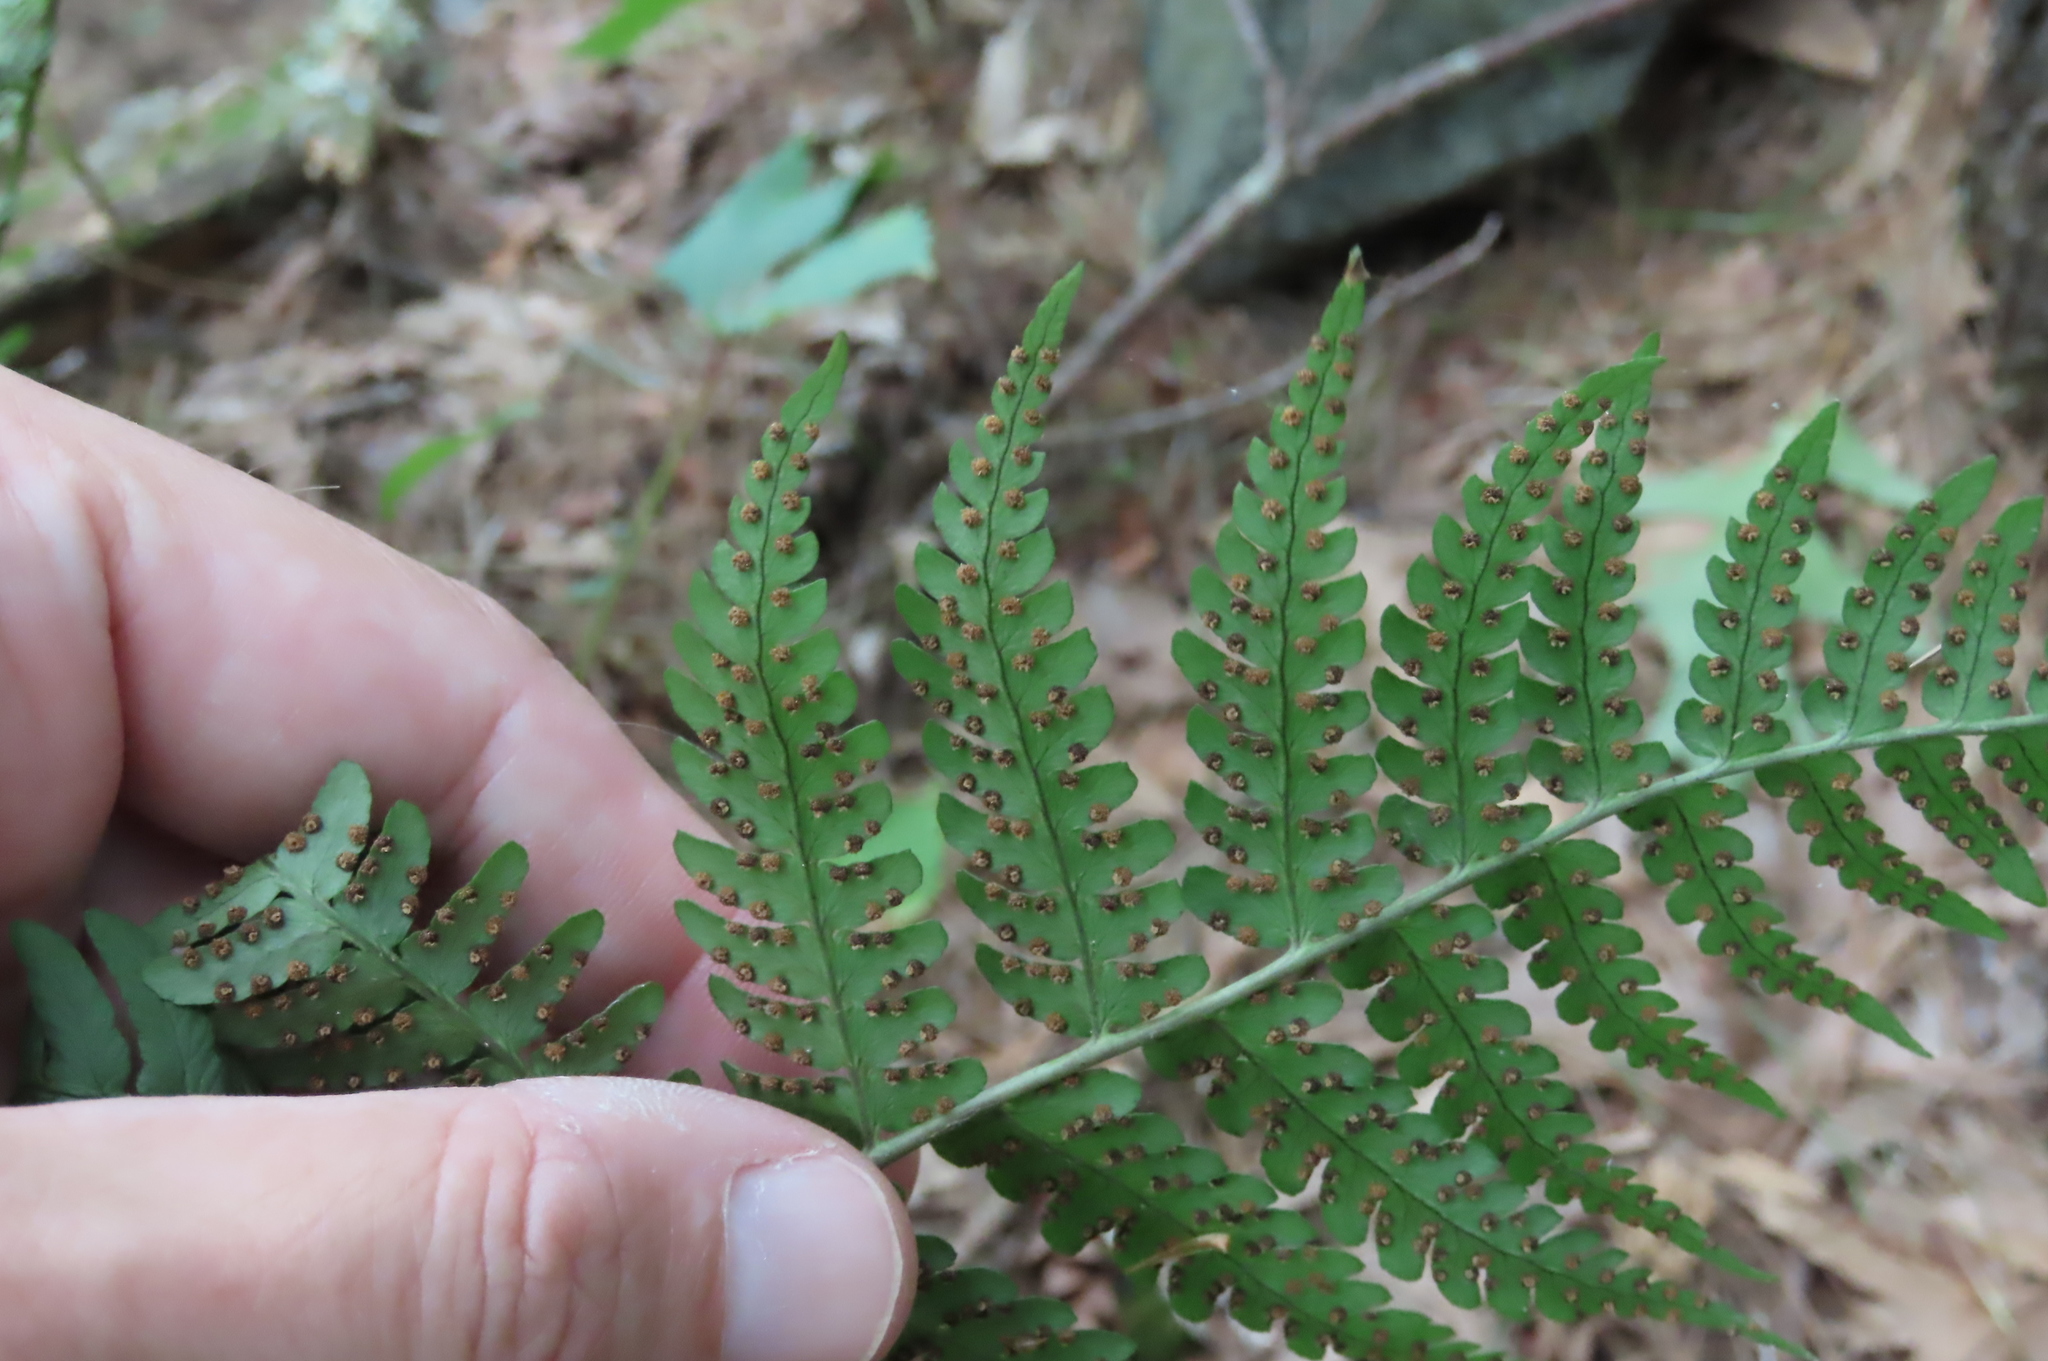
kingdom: Plantae
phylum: Tracheophyta
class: Polypodiopsida
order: Polypodiales
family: Dryopteridaceae
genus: Dryopteris
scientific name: Dryopteris marginalis
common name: Marginal wood fern
